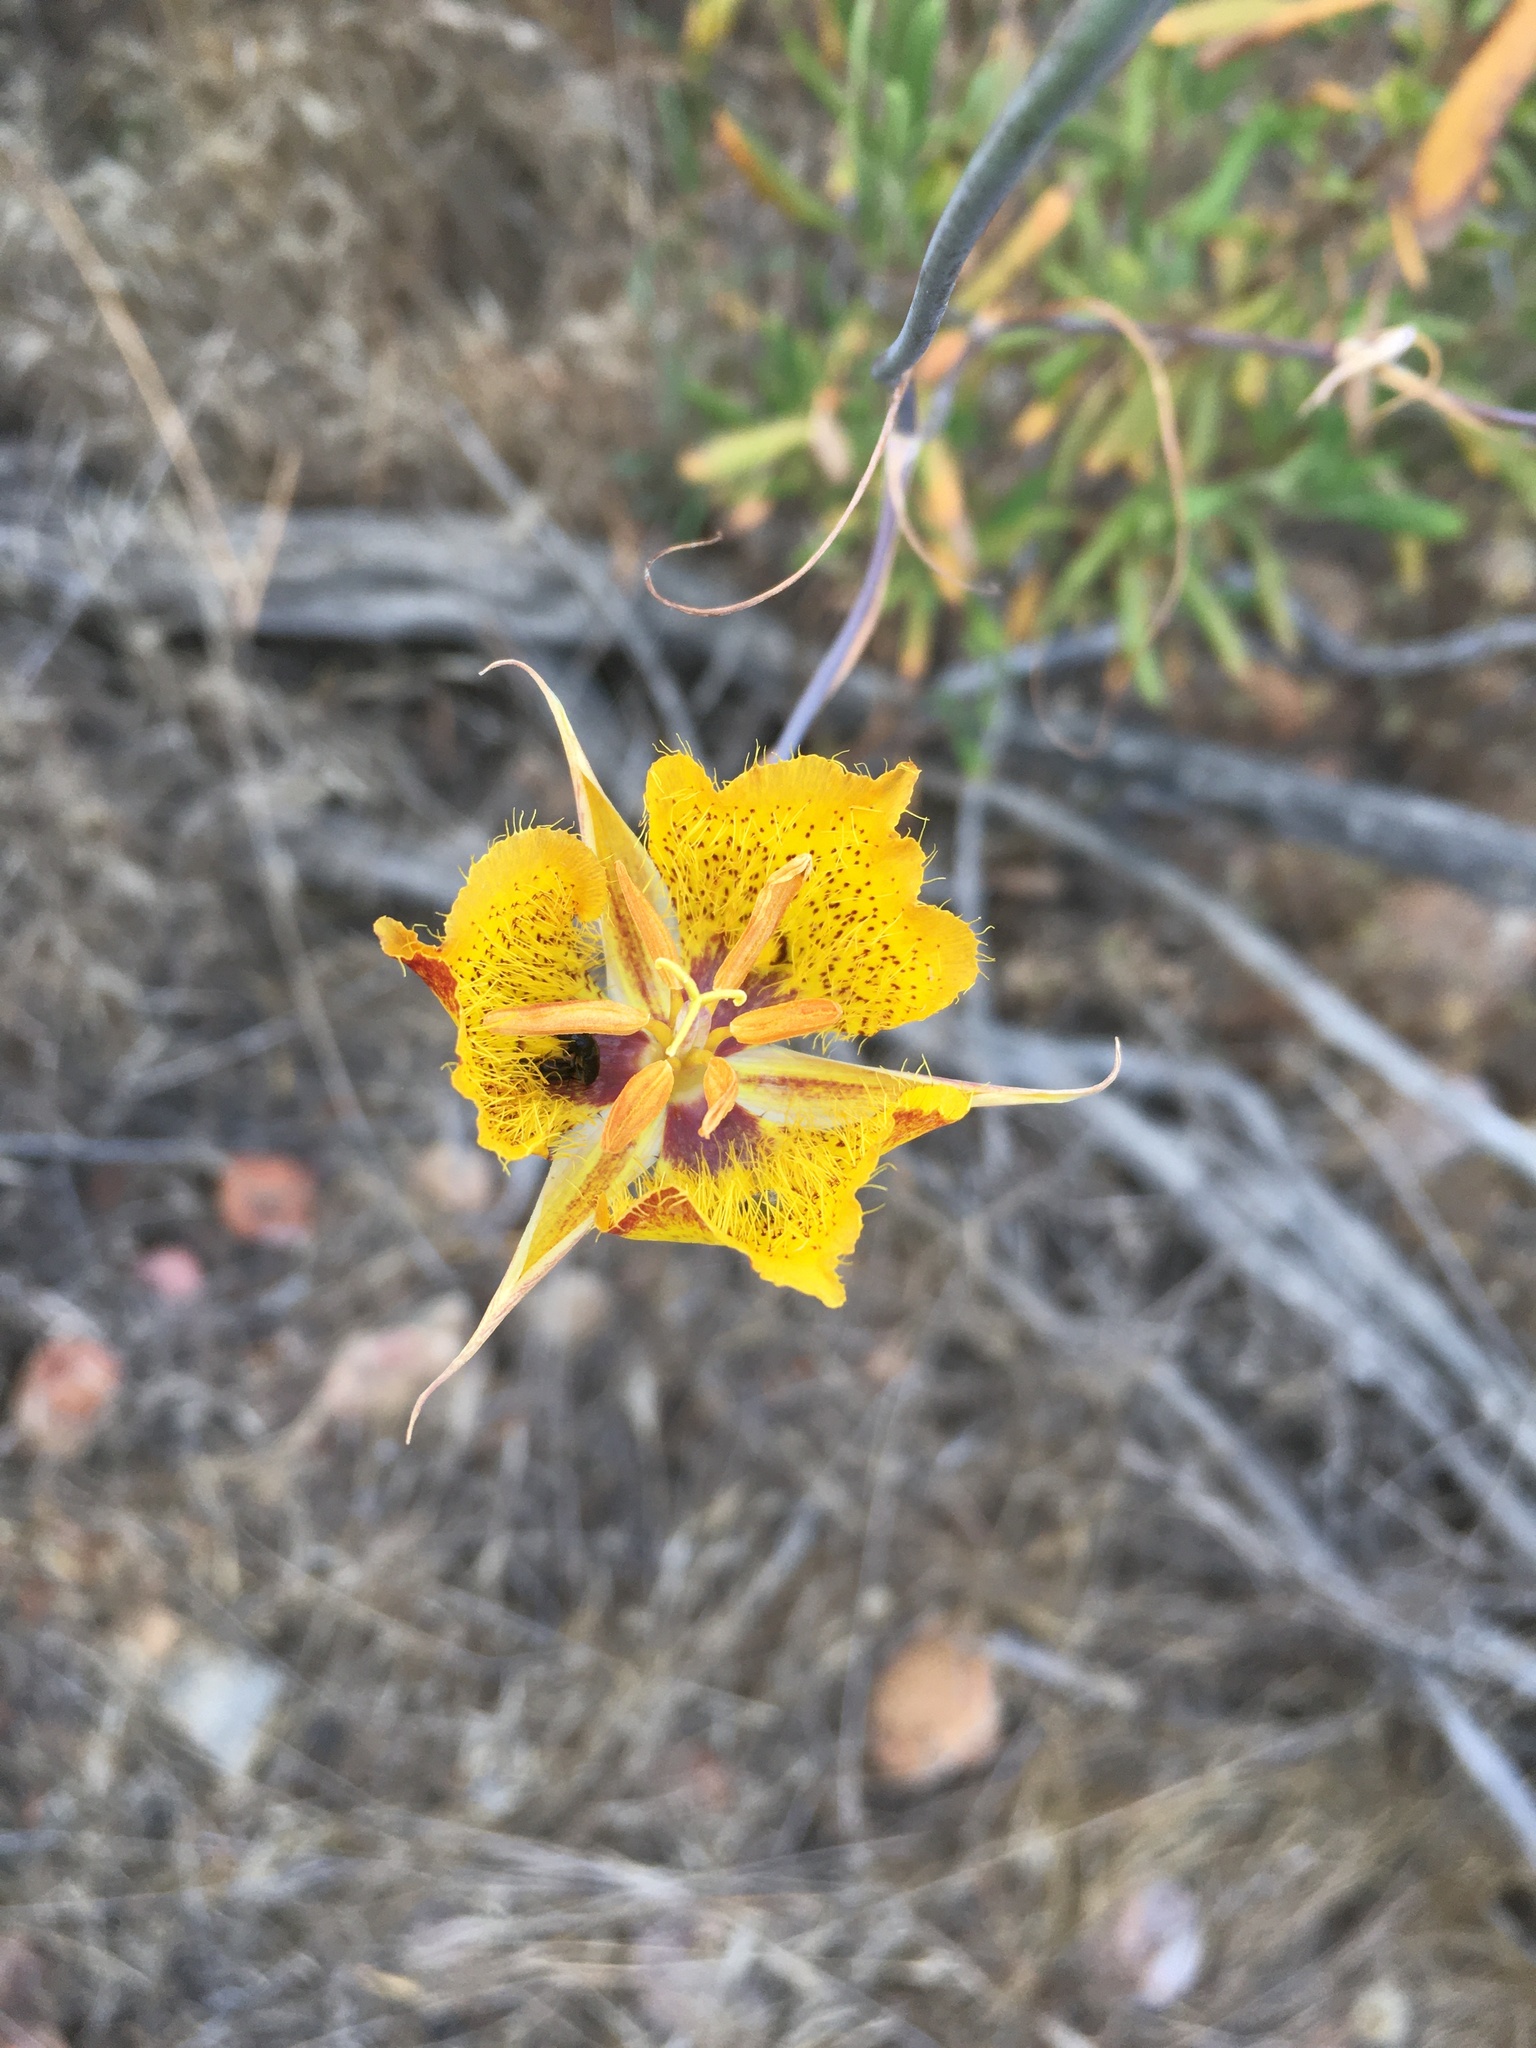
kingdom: Plantae
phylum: Tracheophyta
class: Liliopsida
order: Liliales
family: Liliaceae
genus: Calochortus
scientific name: Calochortus weedii
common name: Weed's mariposa-lily
